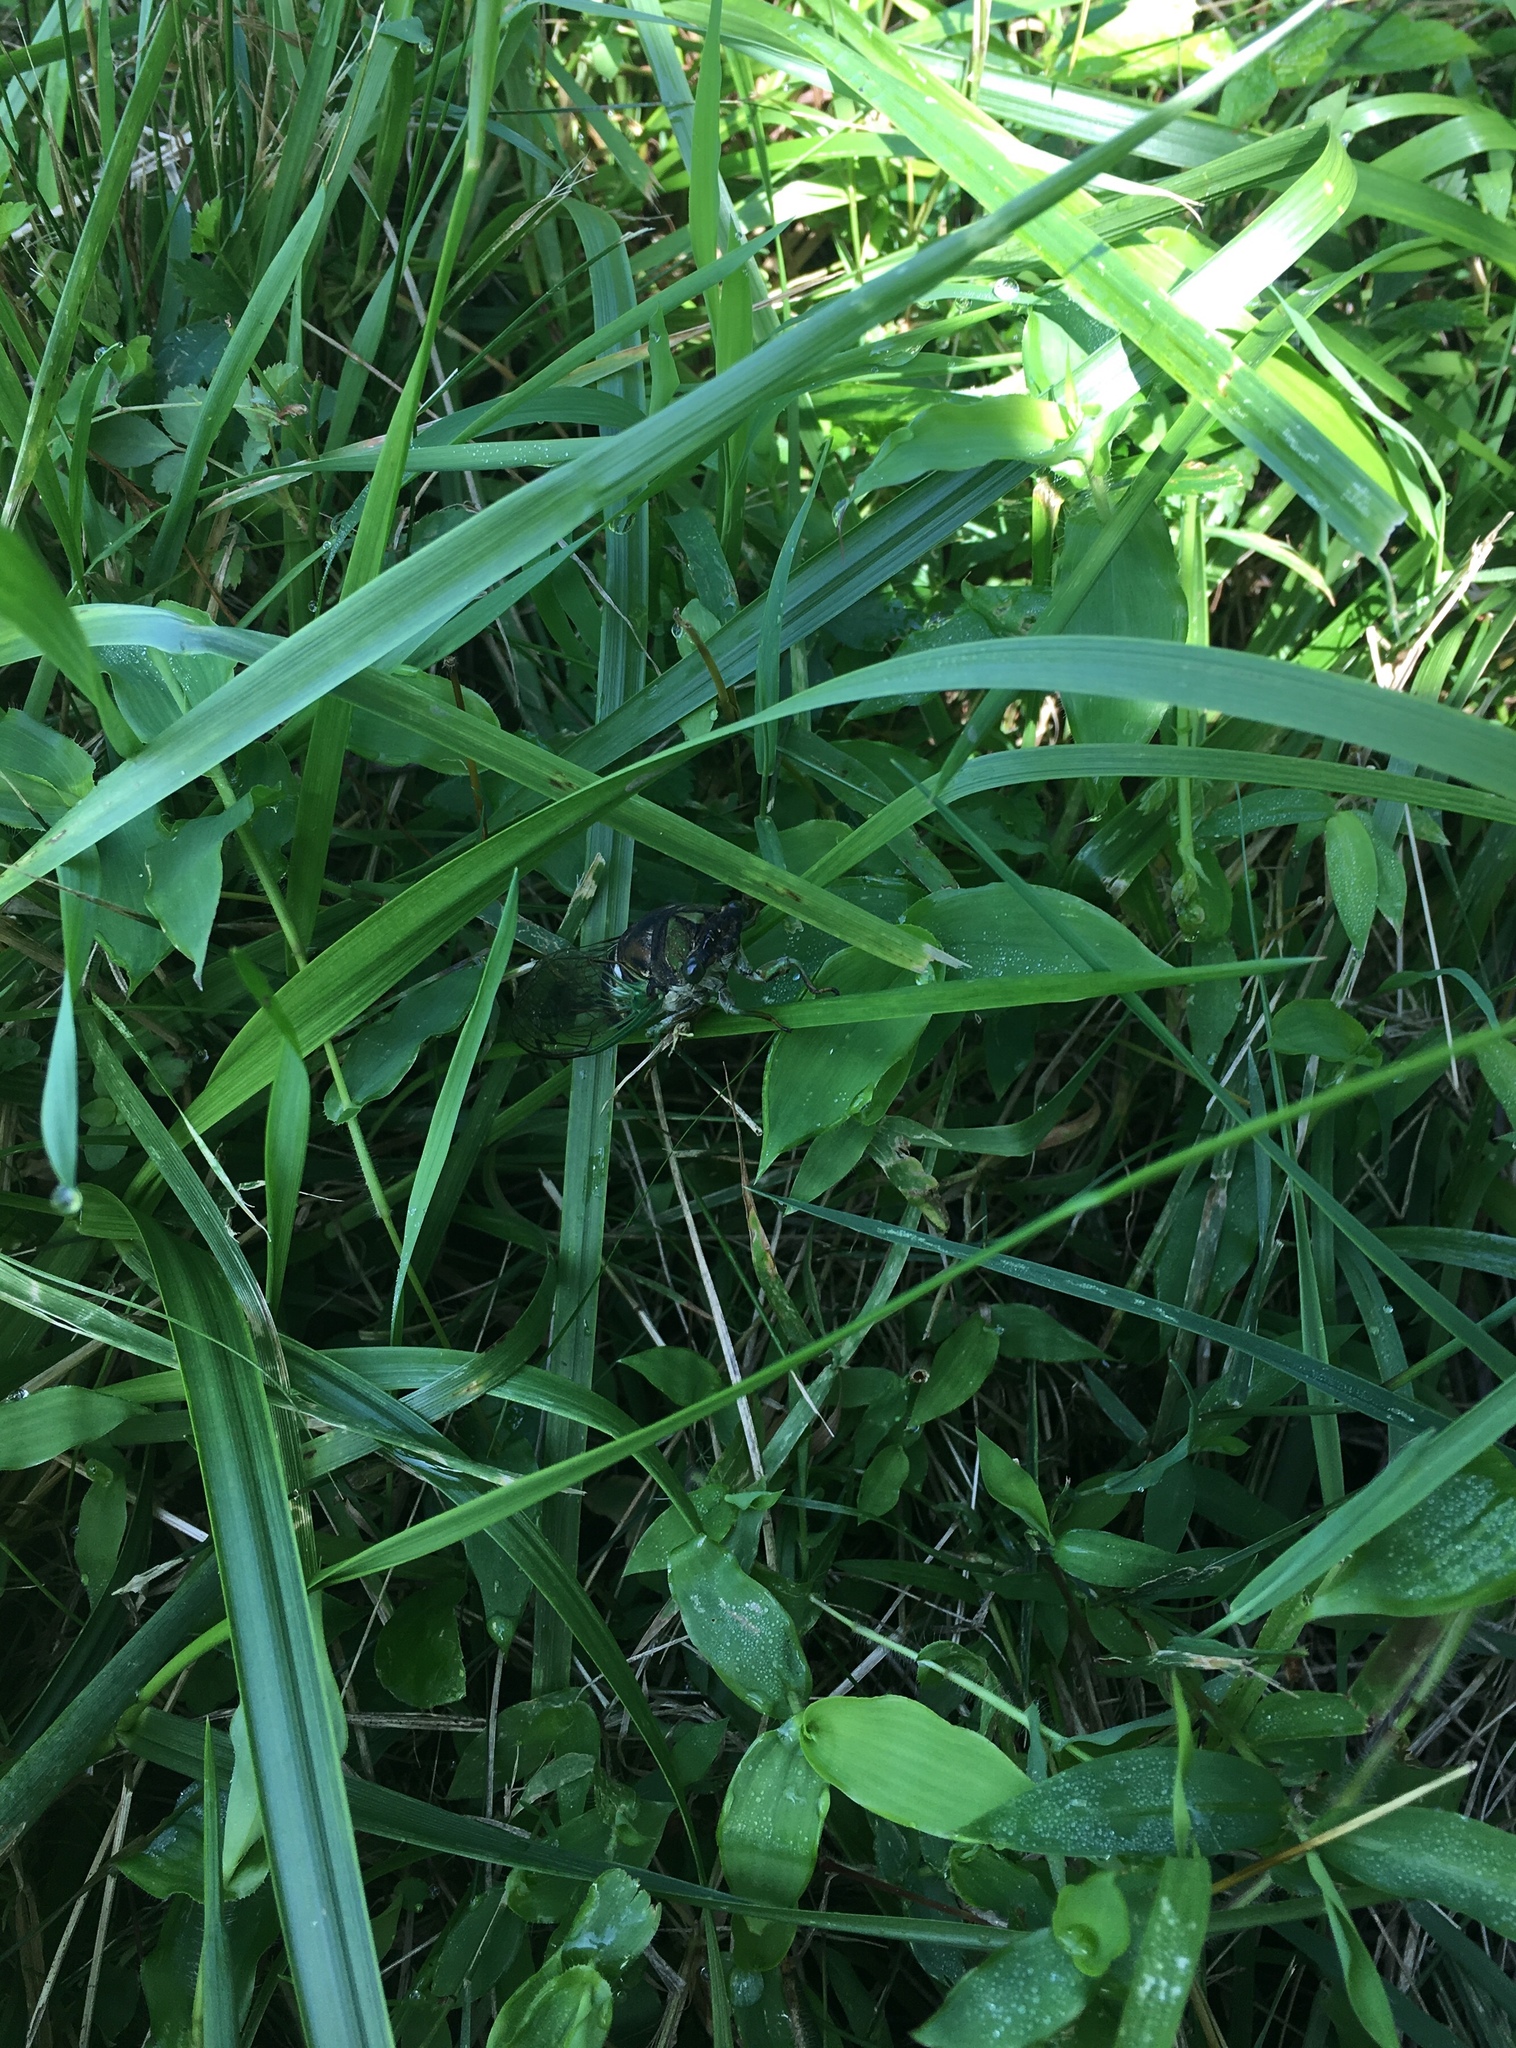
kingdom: Animalia
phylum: Arthropoda
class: Insecta
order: Hemiptera
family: Cicadidae
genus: Neotibicen
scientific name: Neotibicen tibicen
